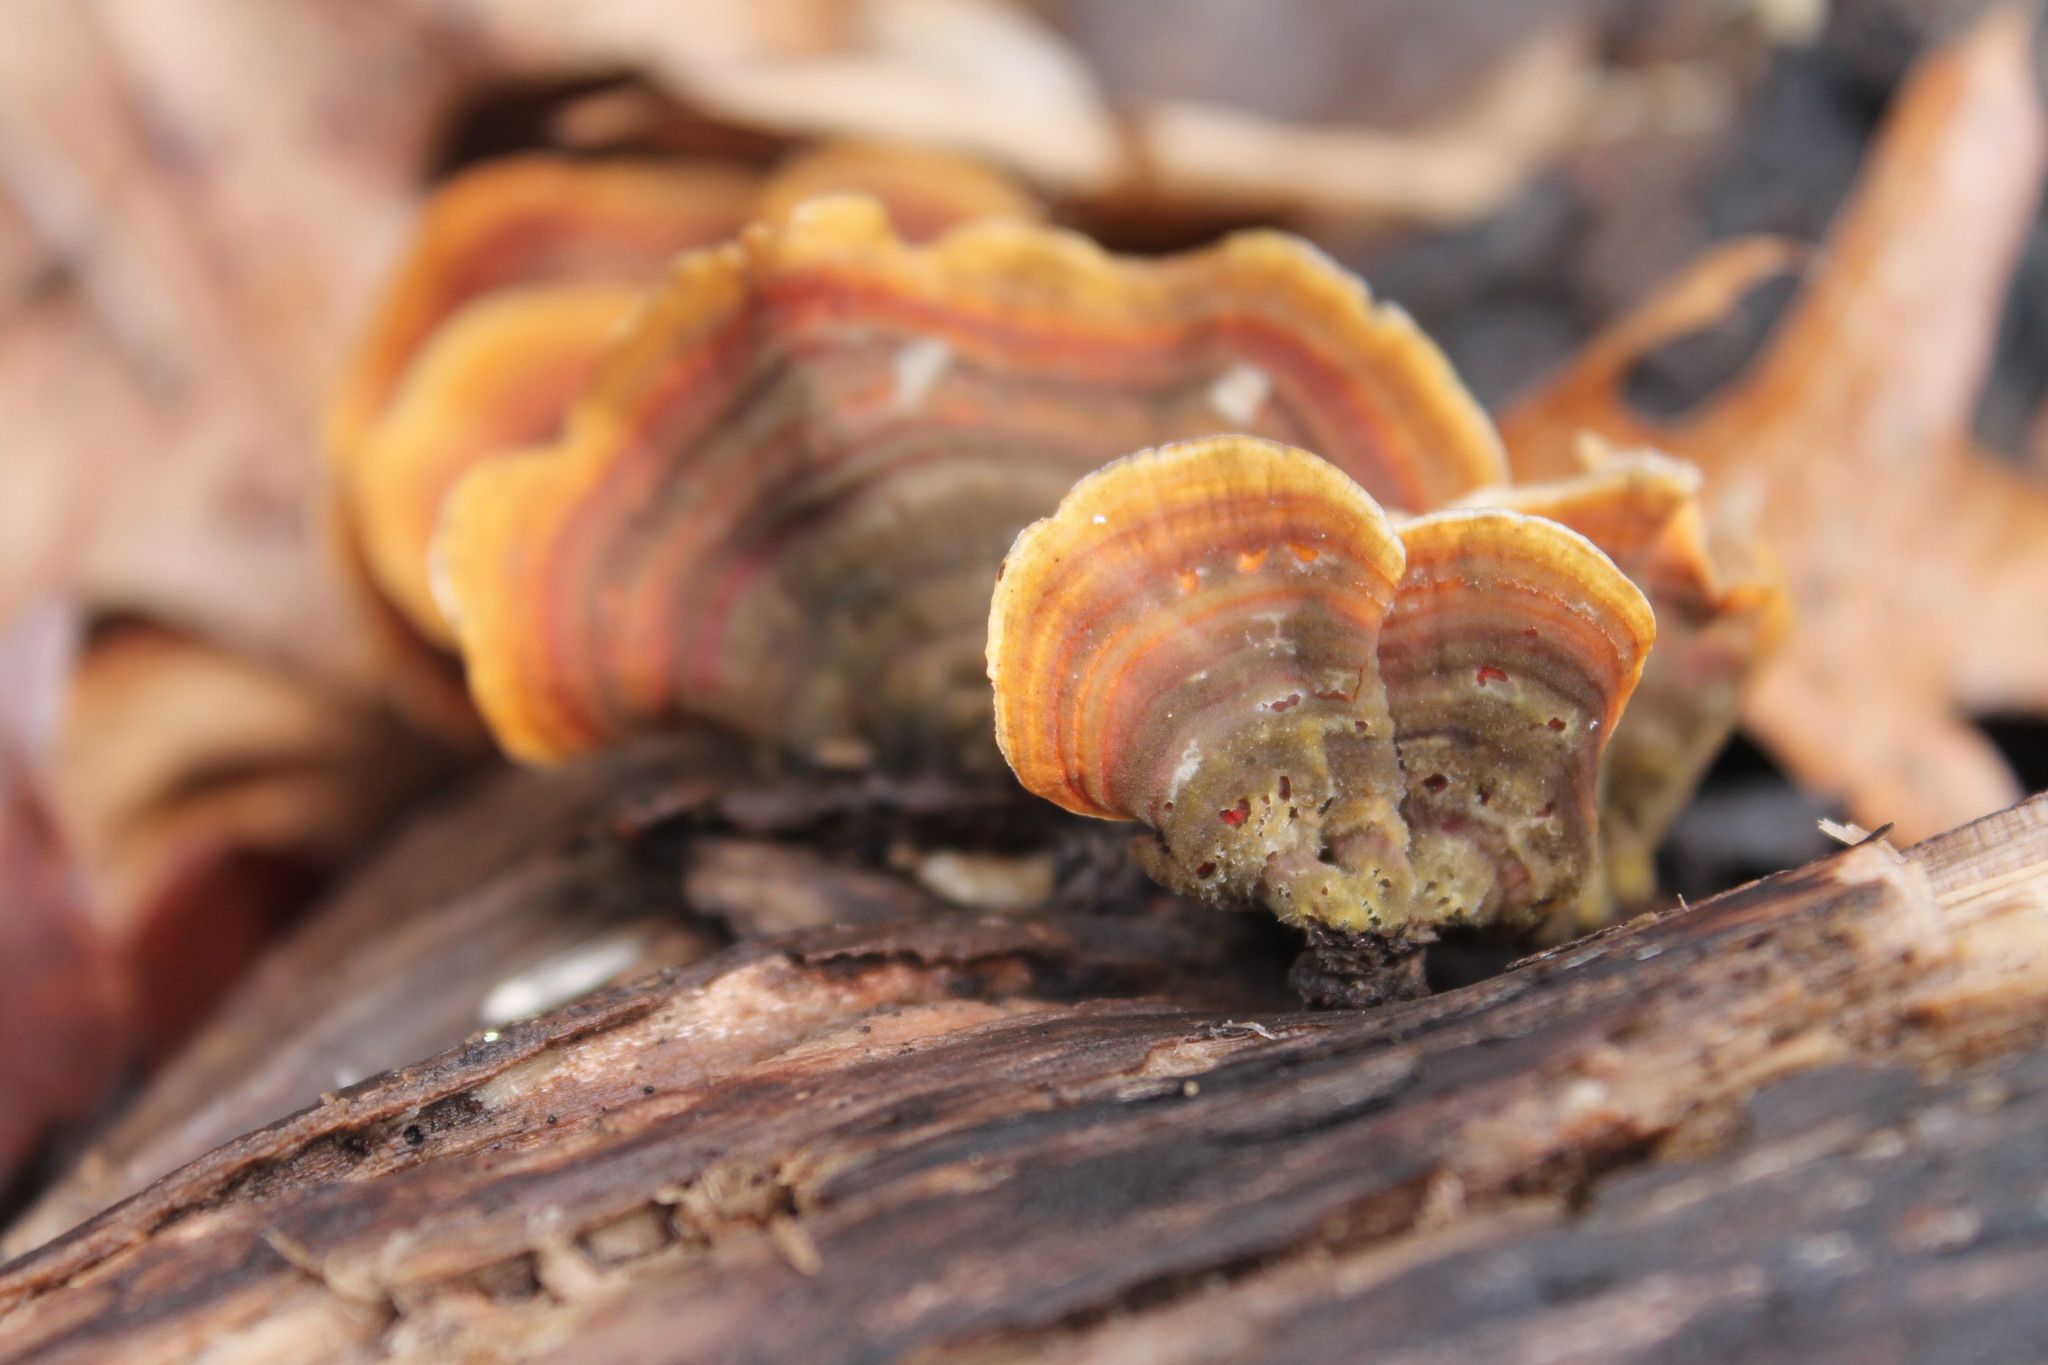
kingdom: Fungi
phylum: Basidiomycota
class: Agaricomycetes
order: Russulales
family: Stereaceae
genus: Stereum
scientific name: Stereum lobatum
